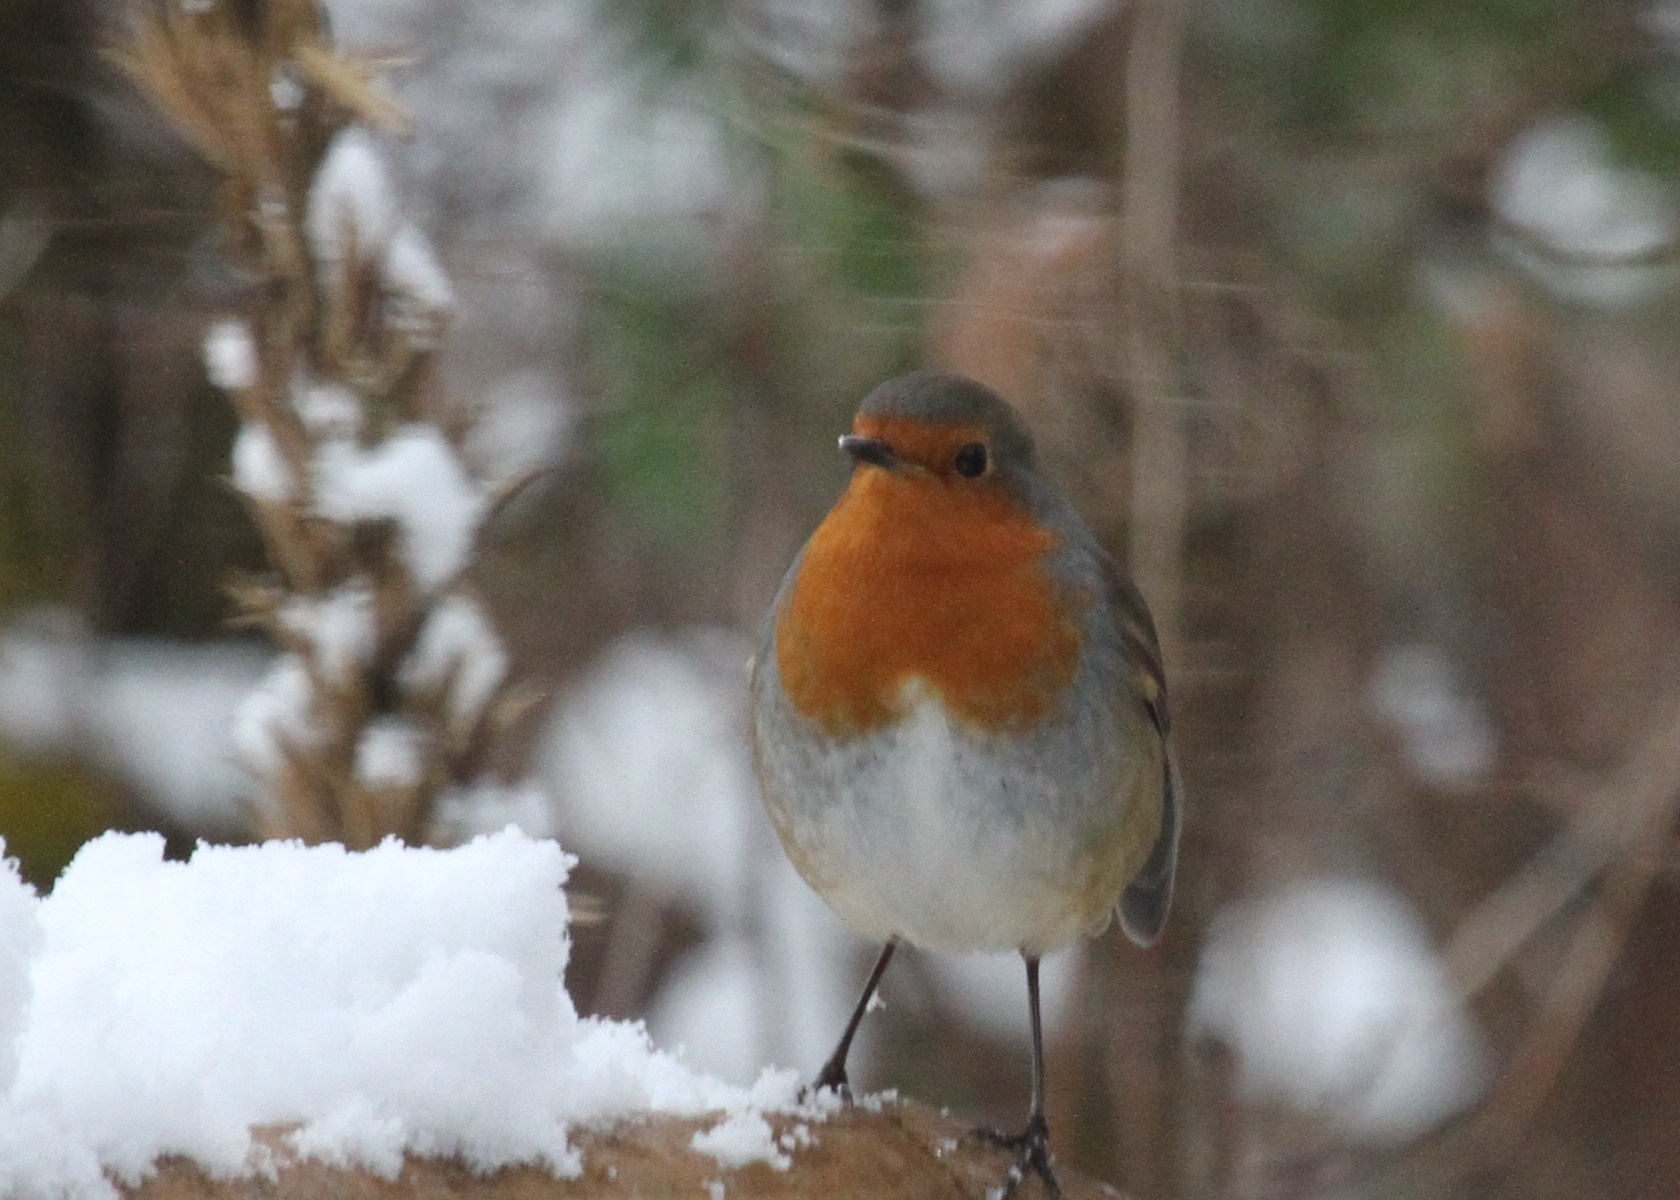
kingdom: Animalia
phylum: Chordata
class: Aves
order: Passeriformes
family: Muscicapidae
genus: Erithacus
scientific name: Erithacus rubecula
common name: European robin
